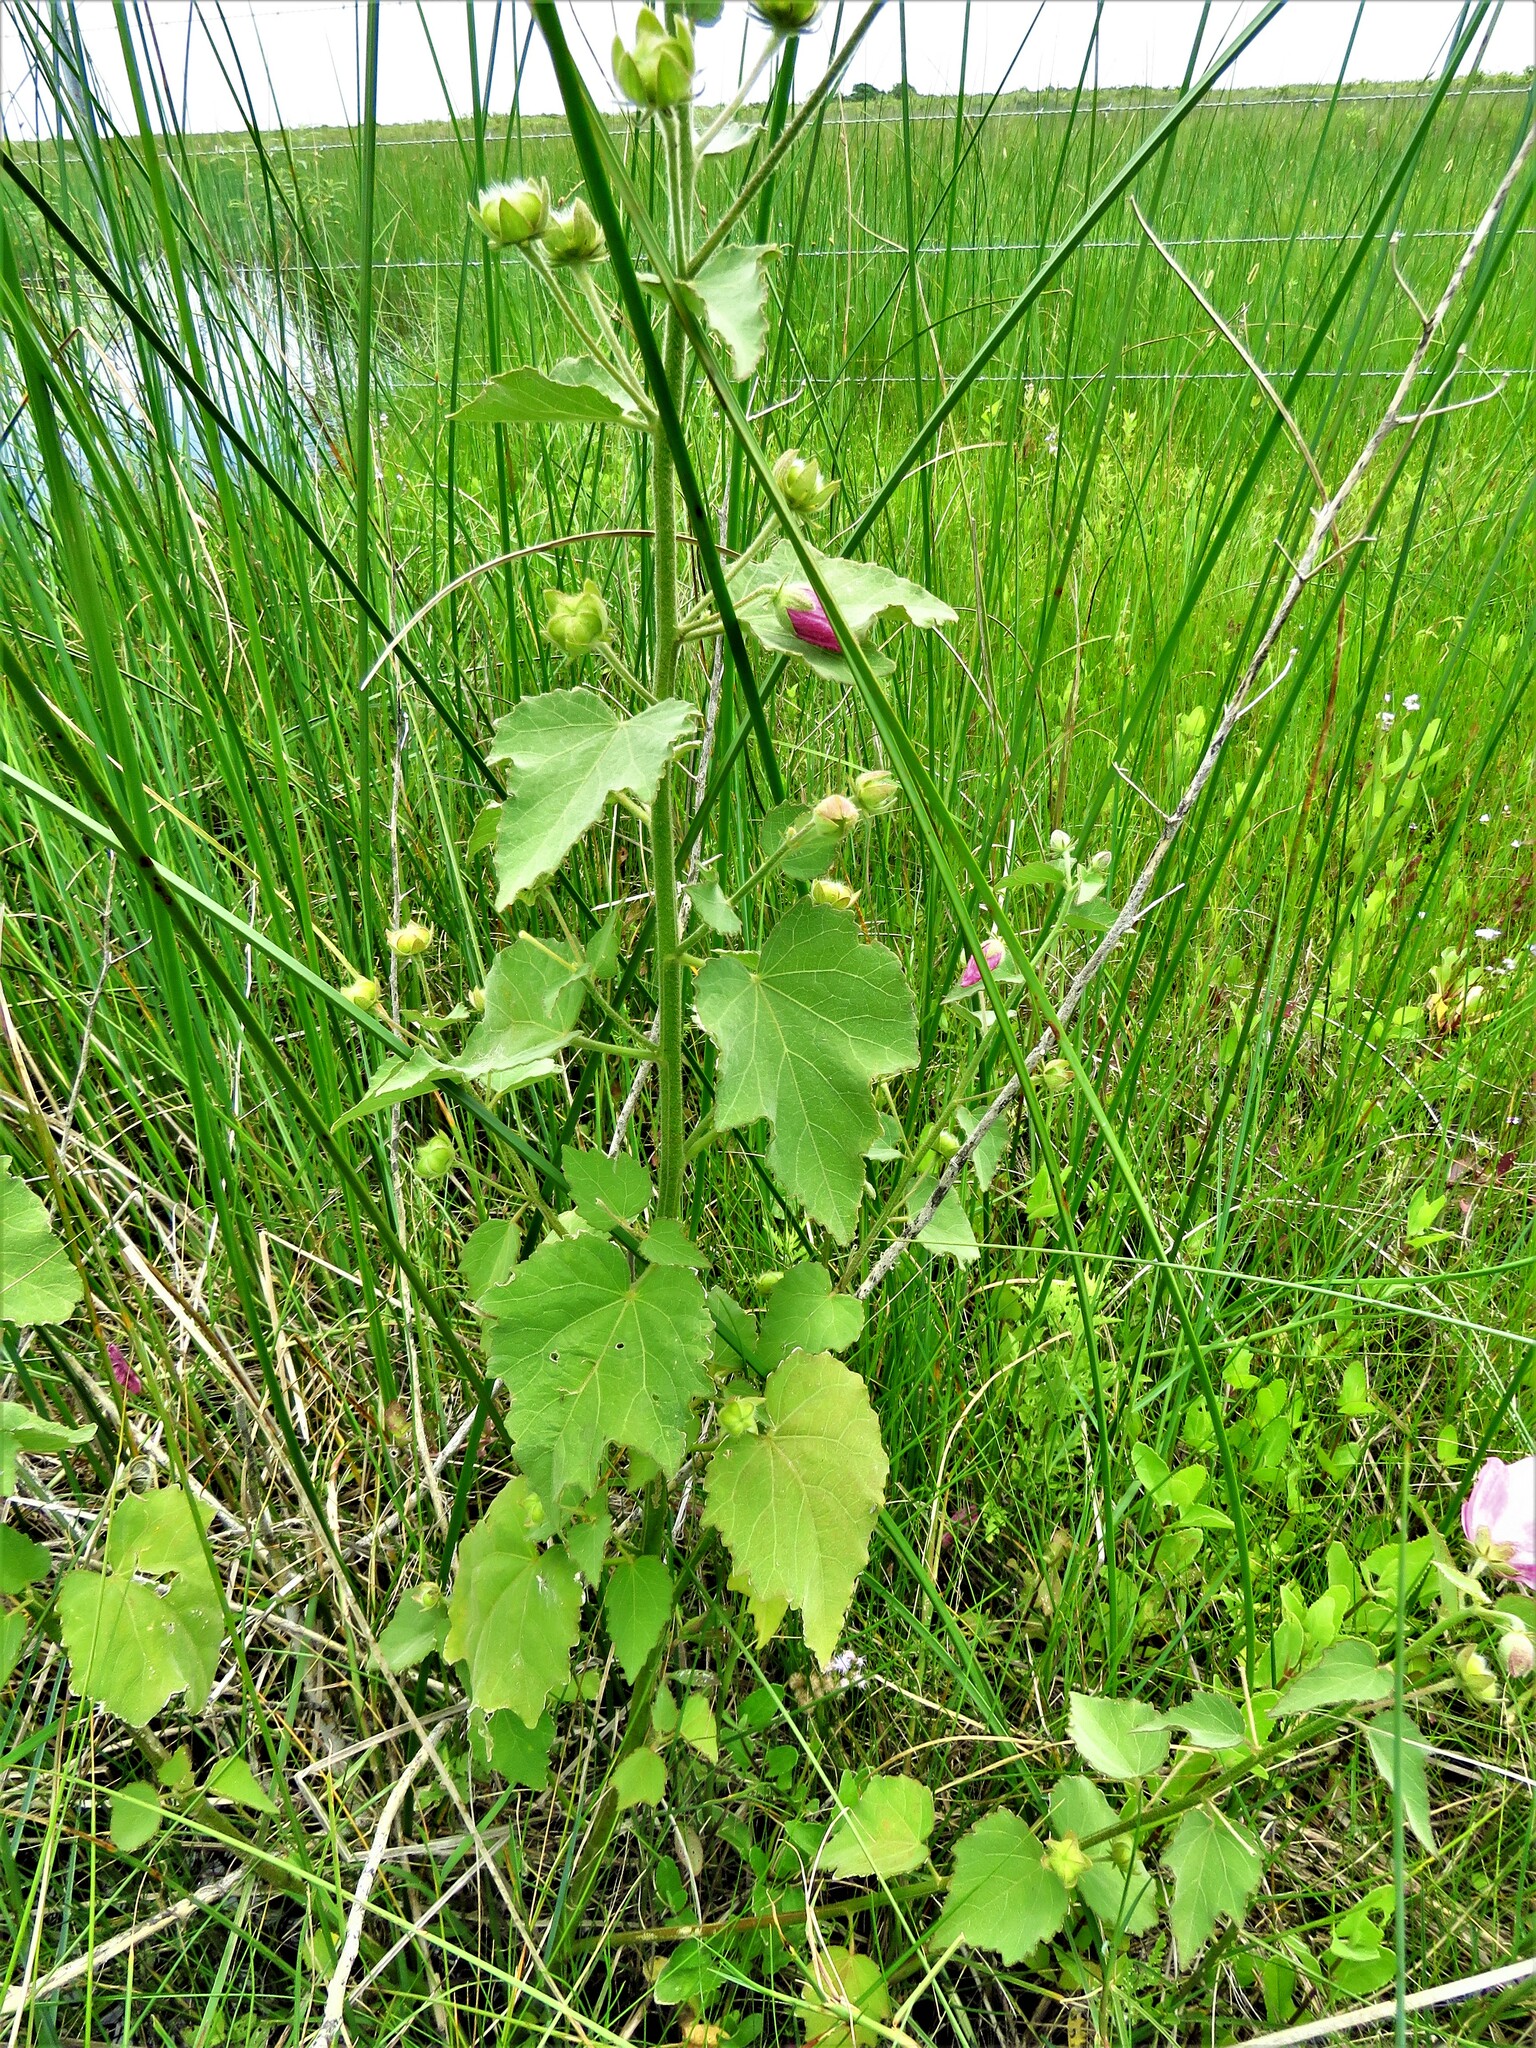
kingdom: Plantae
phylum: Tracheophyta
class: Magnoliopsida
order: Malvales
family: Malvaceae
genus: Kosteletzkya
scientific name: Kosteletzkya pentacarpos
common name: Virginia saltmarsh mallow
